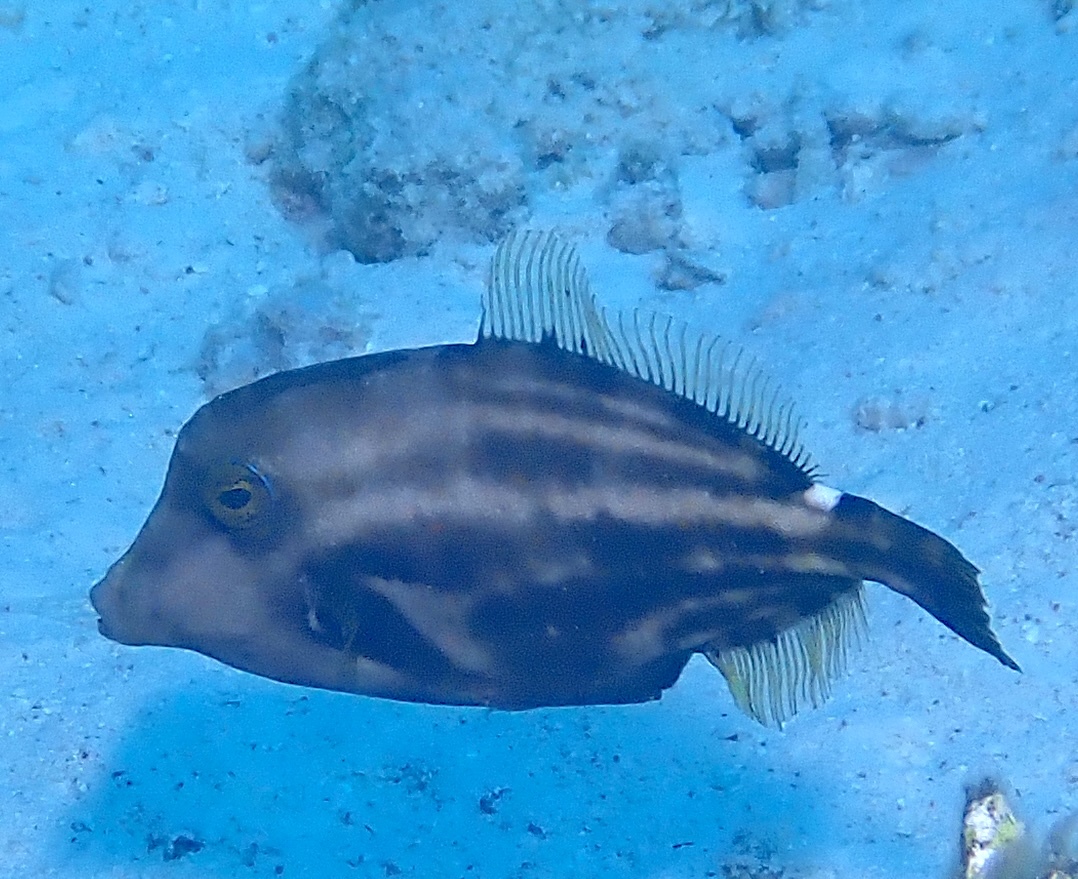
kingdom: Animalia
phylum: Chordata
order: Tetraodontiformes
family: Monacanthidae
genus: Cantherhines
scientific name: Cantherhines pullus
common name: Orangespotted filefish
